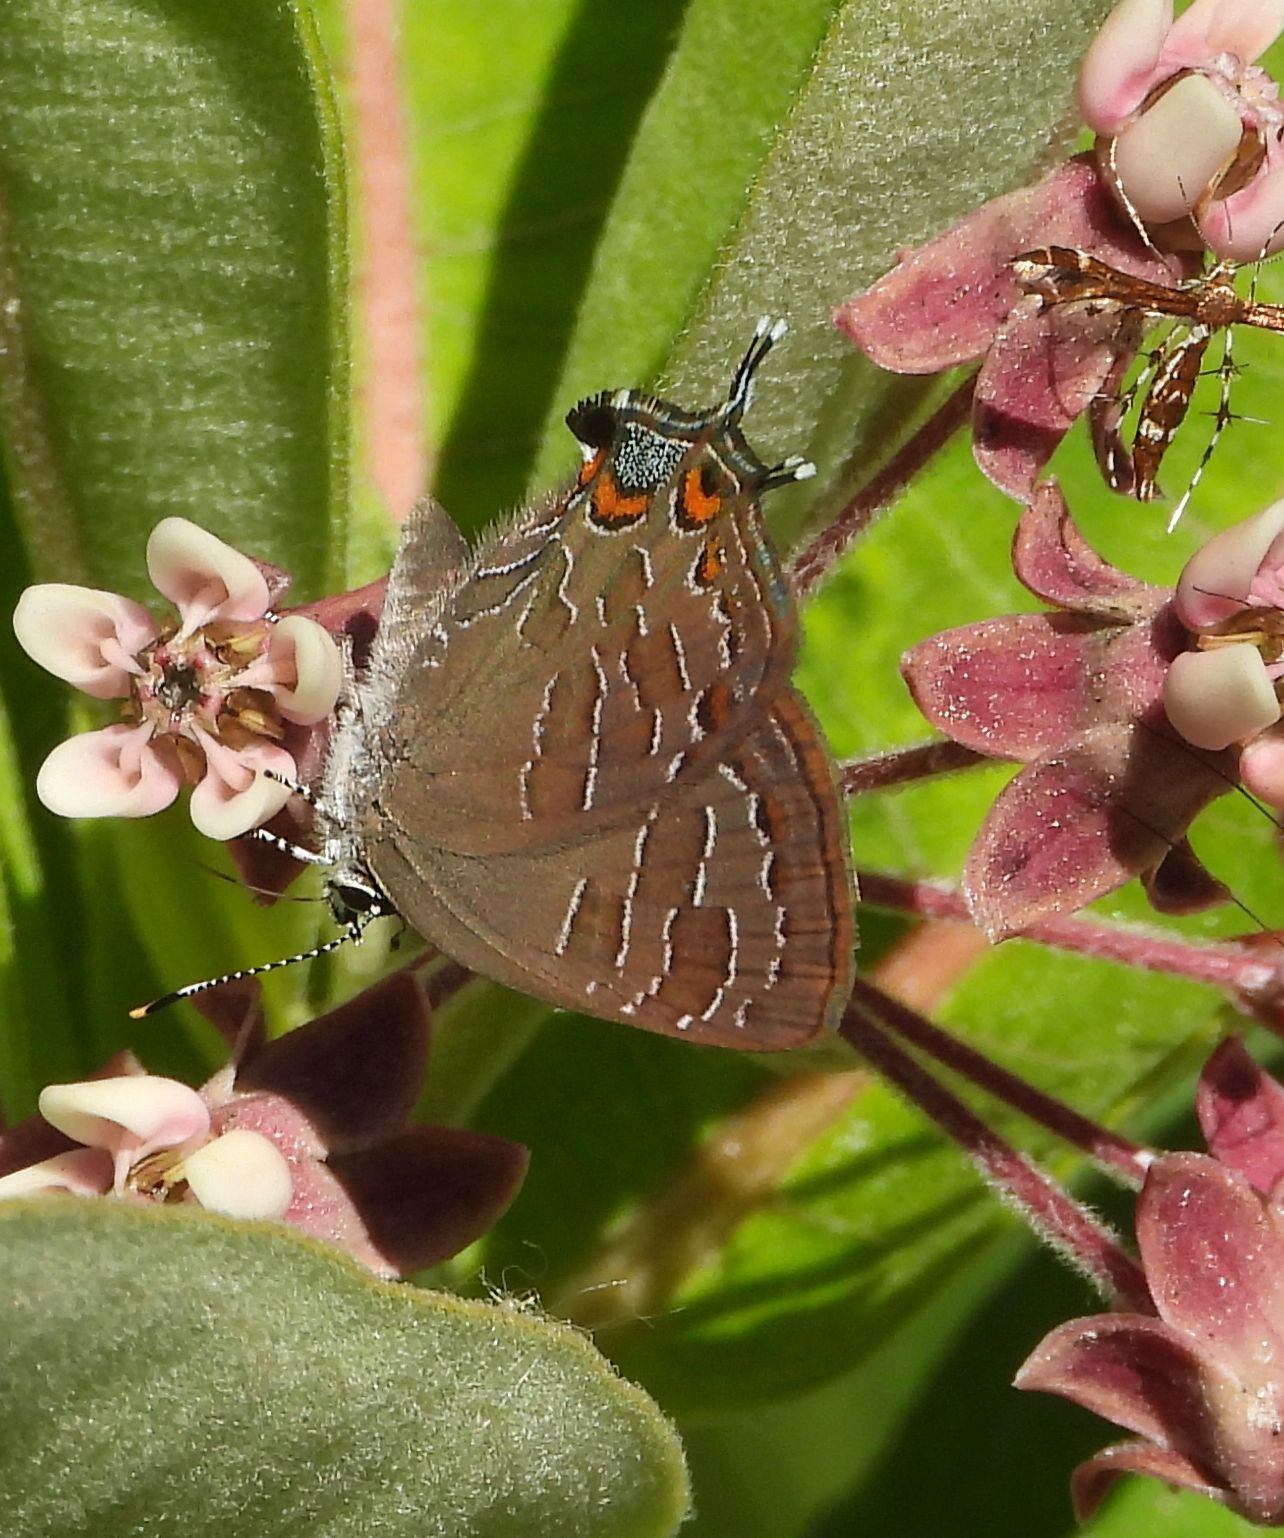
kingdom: Animalia
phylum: Arthropoda
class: Insecta
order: Lepidoptera
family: Lycaenidae
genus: Satyrium
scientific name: Satyrium liparops
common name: Striped hairstreak
